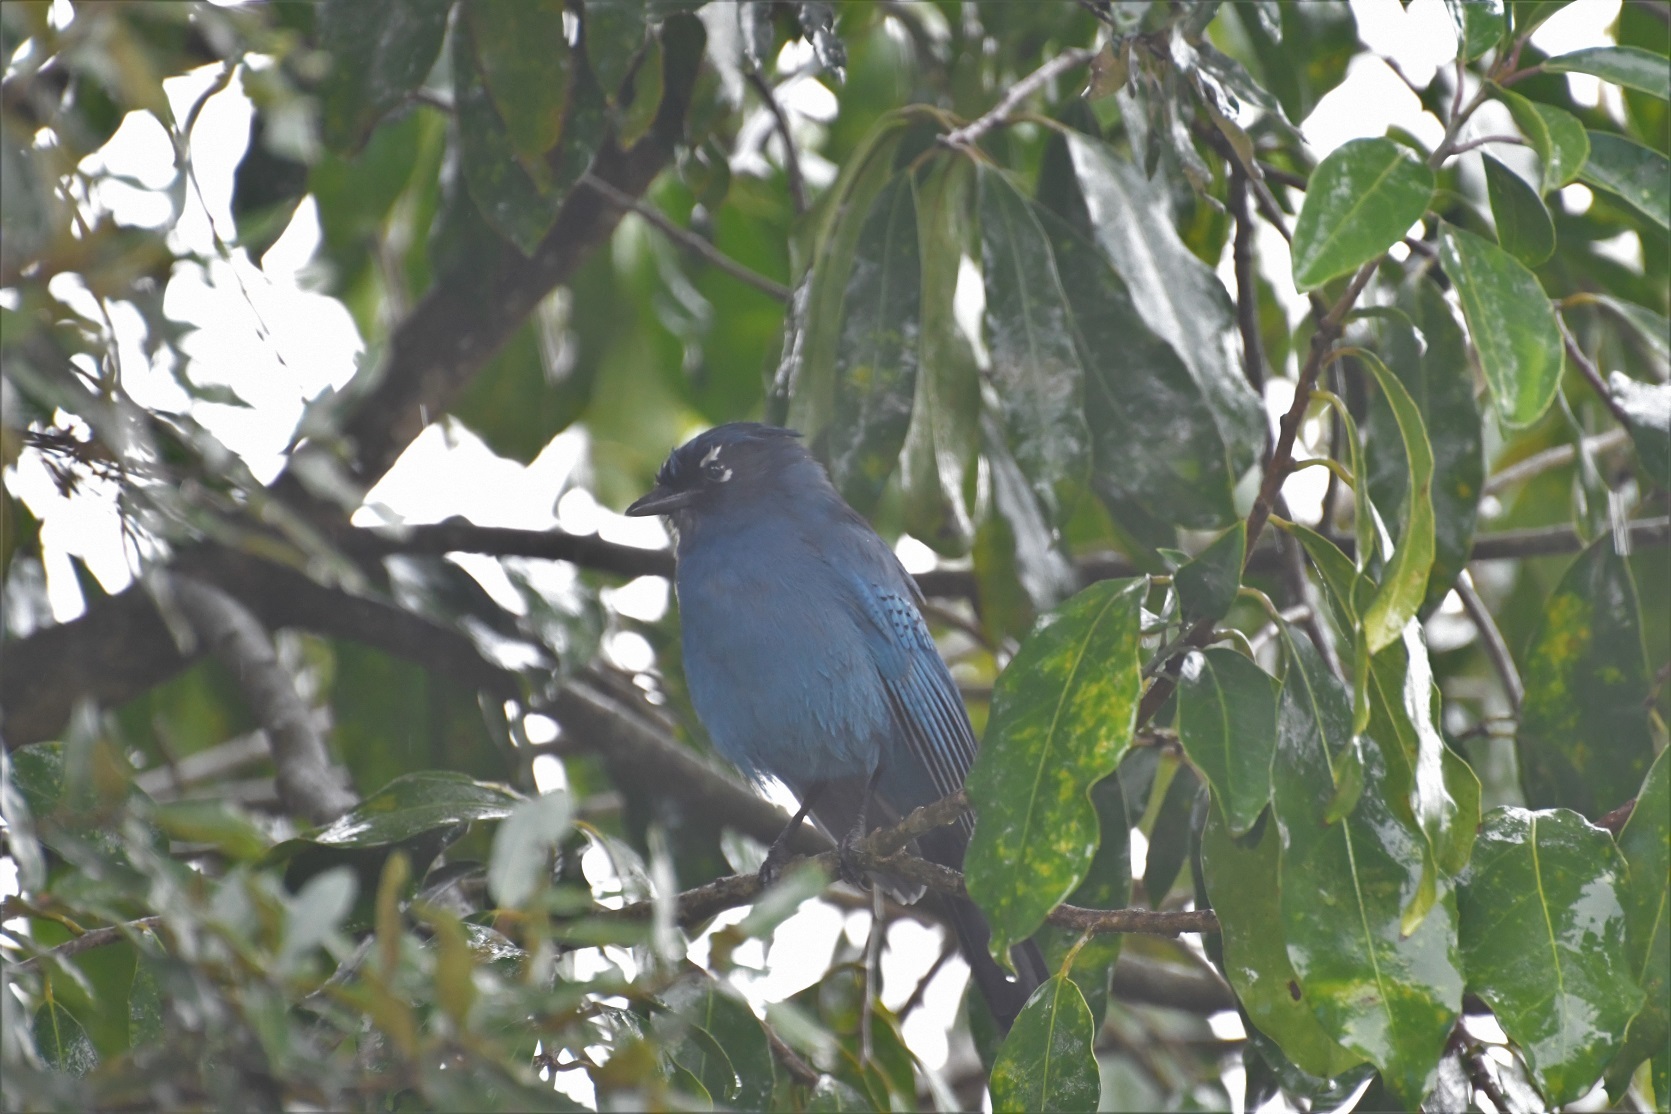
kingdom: Animalia
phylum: Chordata
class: Aves
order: Passeriformes
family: Corvidae
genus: Cyanocitta
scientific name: Cyanocitta stelleri
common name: Steller's jay
